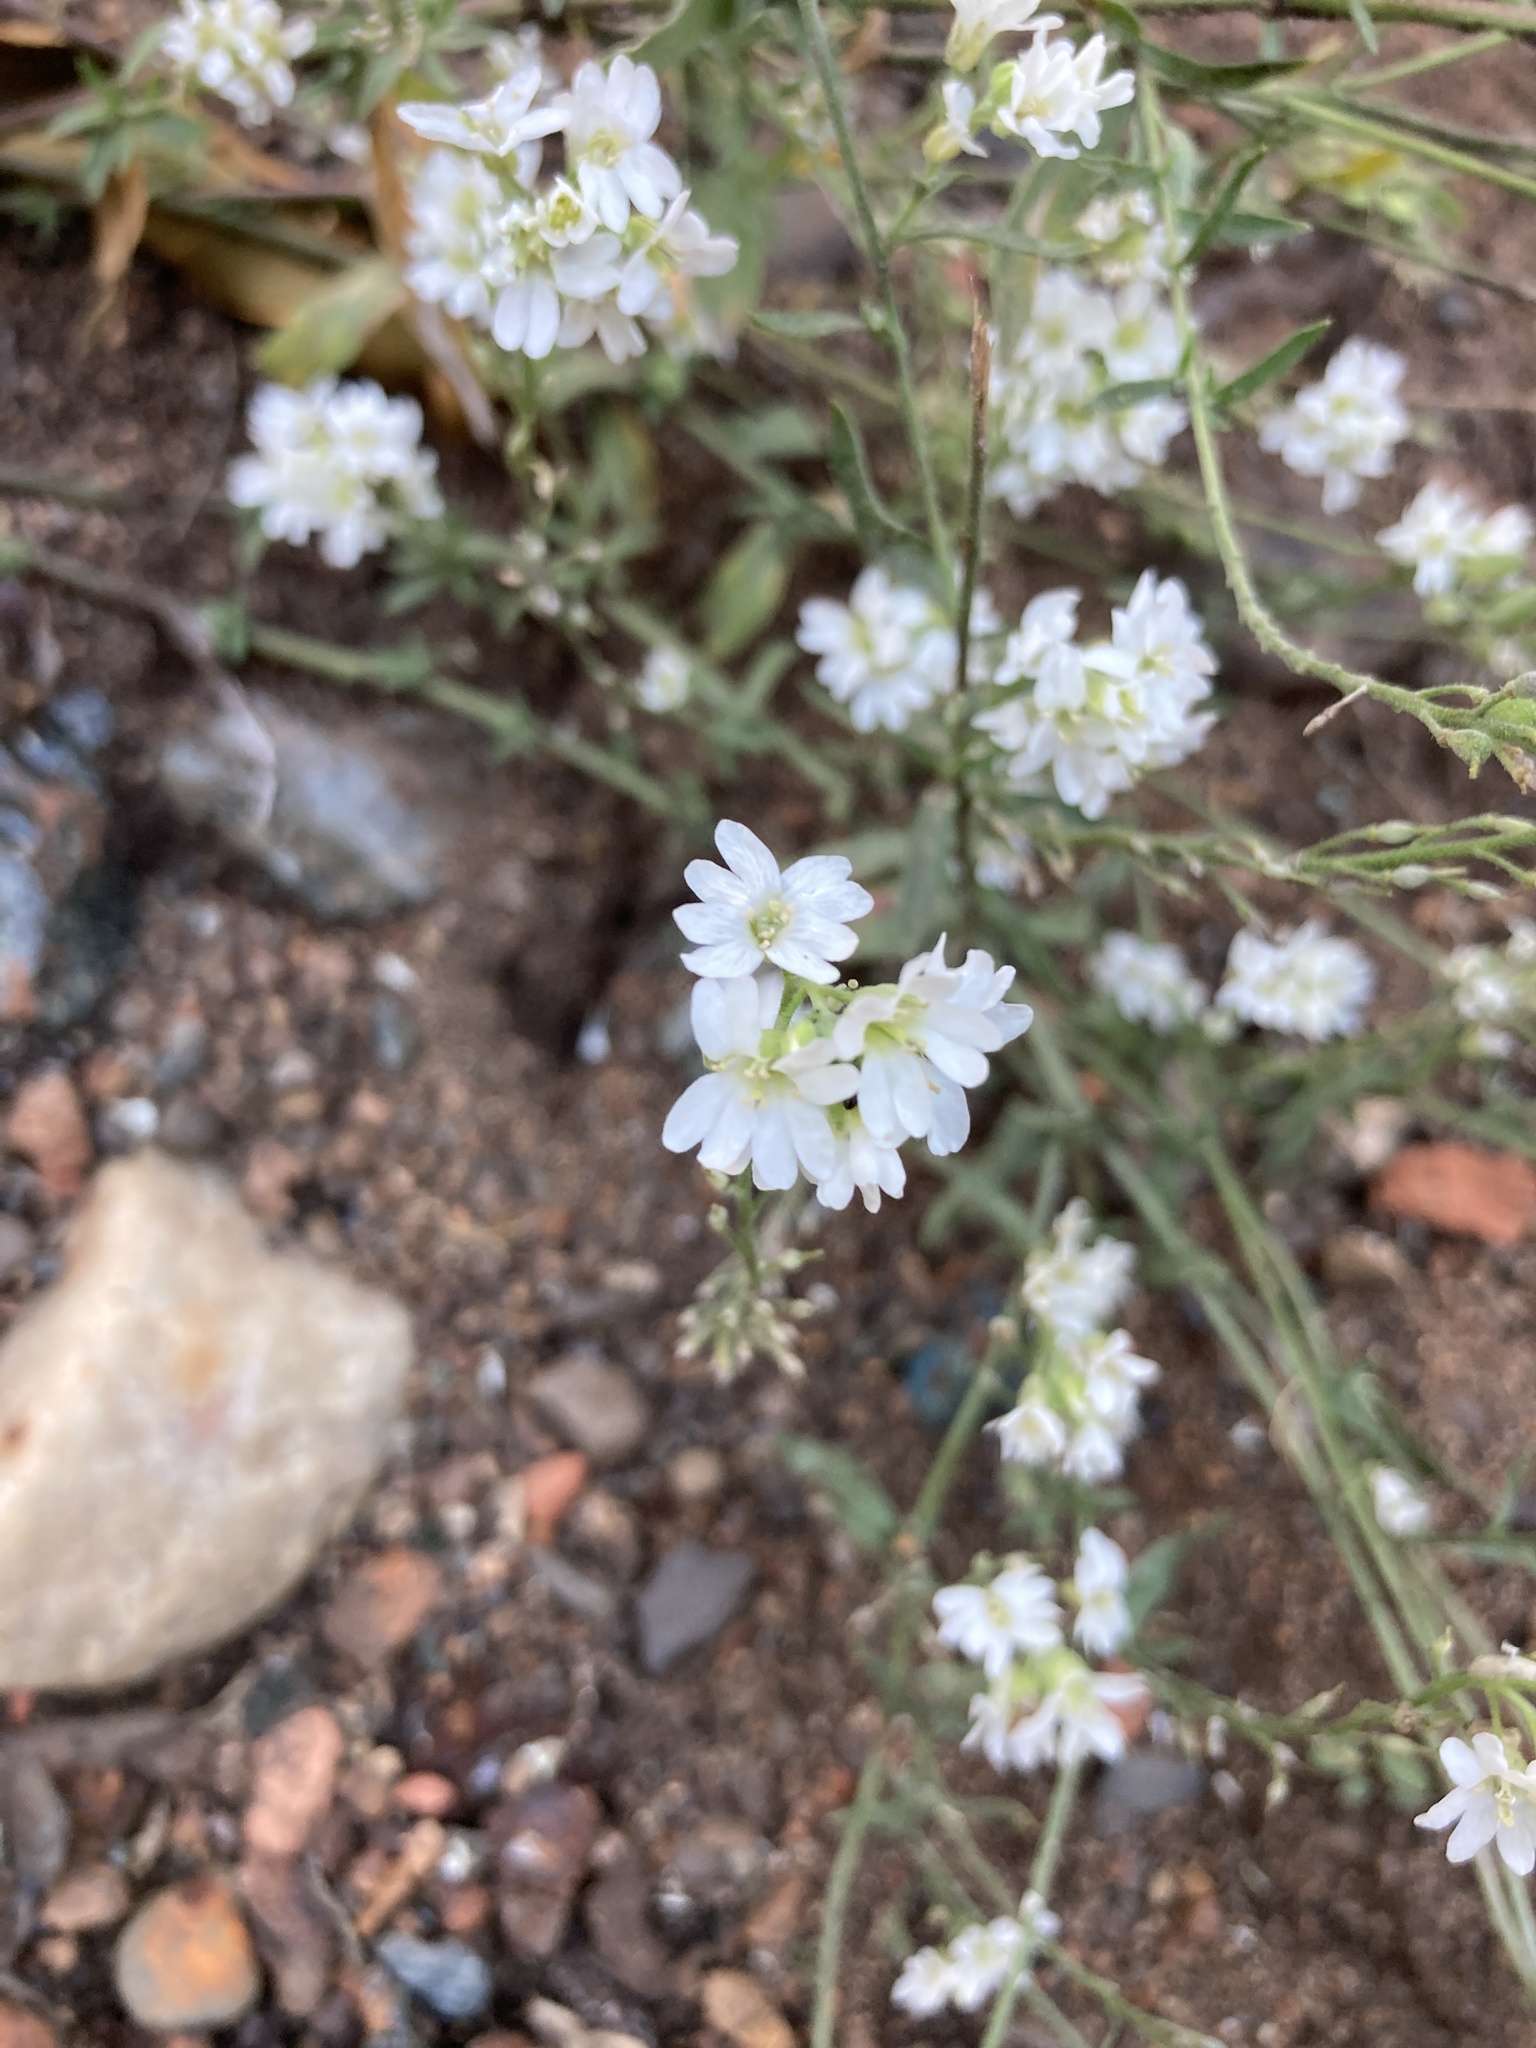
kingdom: Plantae
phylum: Tracheophyta
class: Magnoliopsida
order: Brassicales
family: Brassicaceae
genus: Berteroa
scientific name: Berteroa incana
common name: Hoary alison
